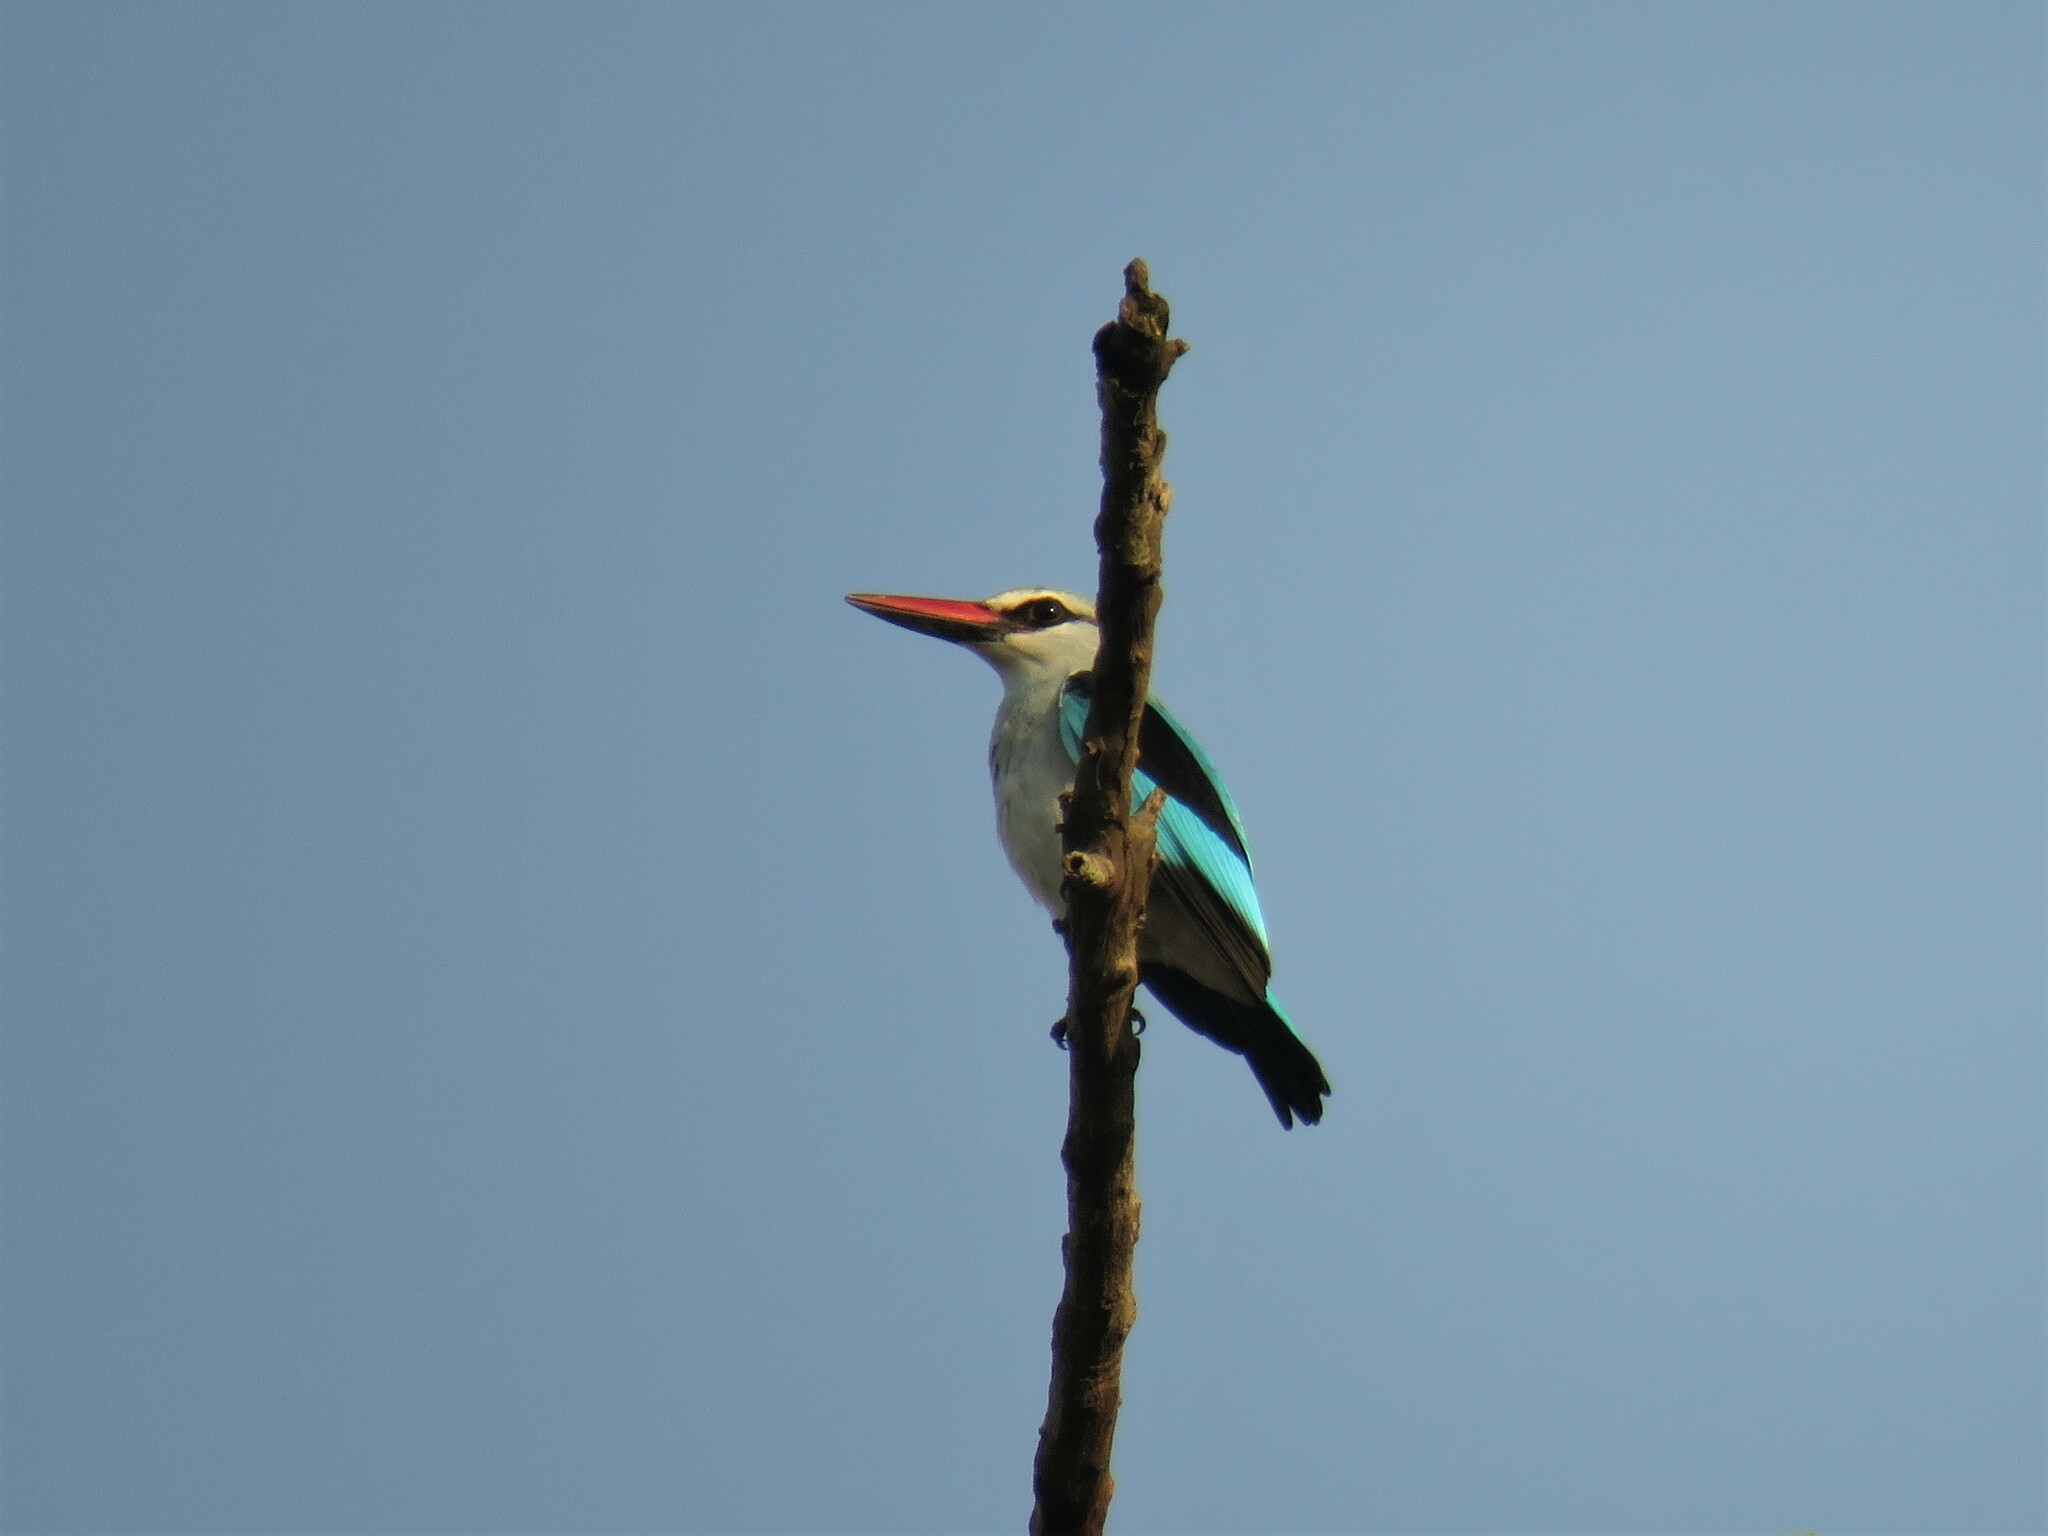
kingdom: Animalia
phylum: Chordata
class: Aves
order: Coraciiformes
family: Alcedinidae
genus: Halcyon
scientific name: Halcyon senegalensis
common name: Woodland kingfisher
